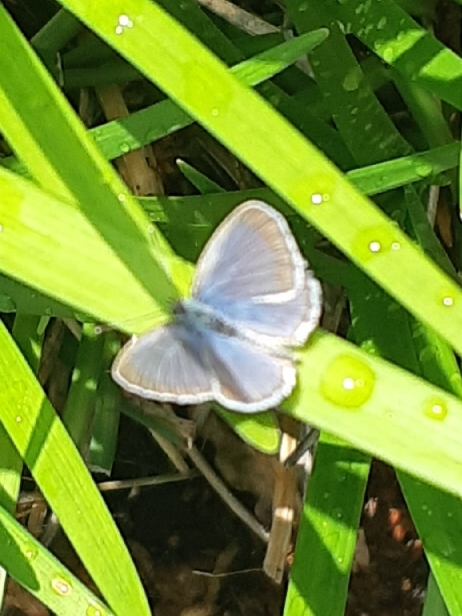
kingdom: Animalia
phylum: Arthropoda
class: Insecta
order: Lepidoptera
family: Lycaenidae
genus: Zizina
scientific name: Zizina otis
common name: Lesser grass blue
